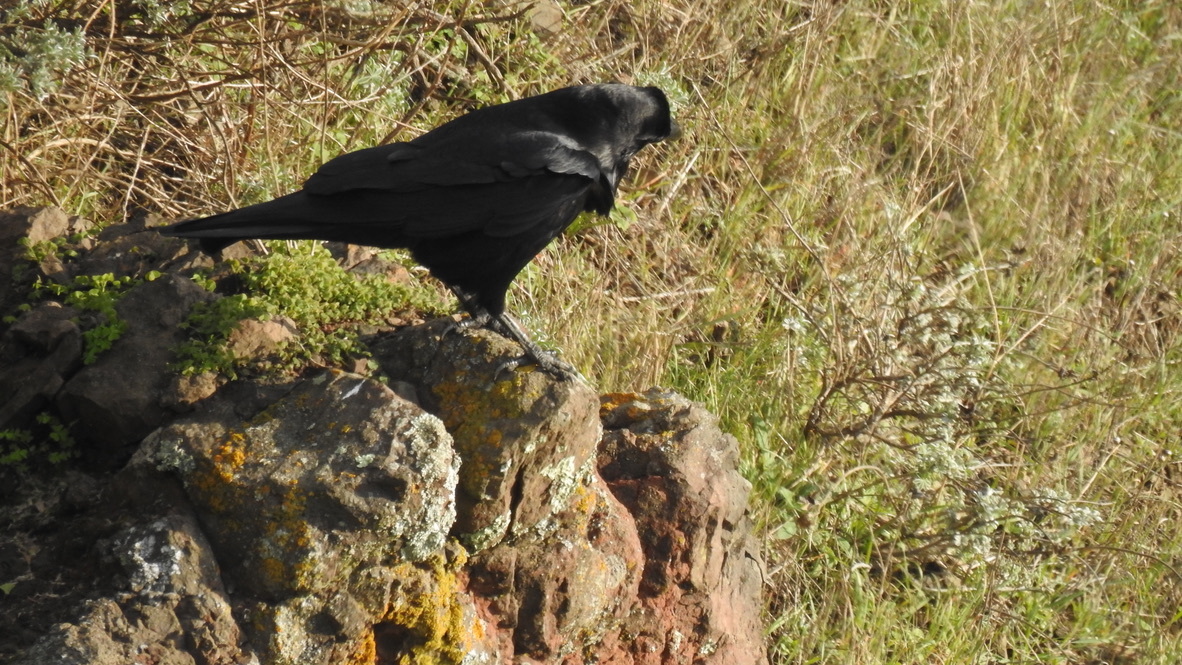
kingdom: Animalia
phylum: Chordata
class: Aves
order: Passeriformes
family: Corvidae
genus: Corvus
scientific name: Corvus corax
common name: Common raven
